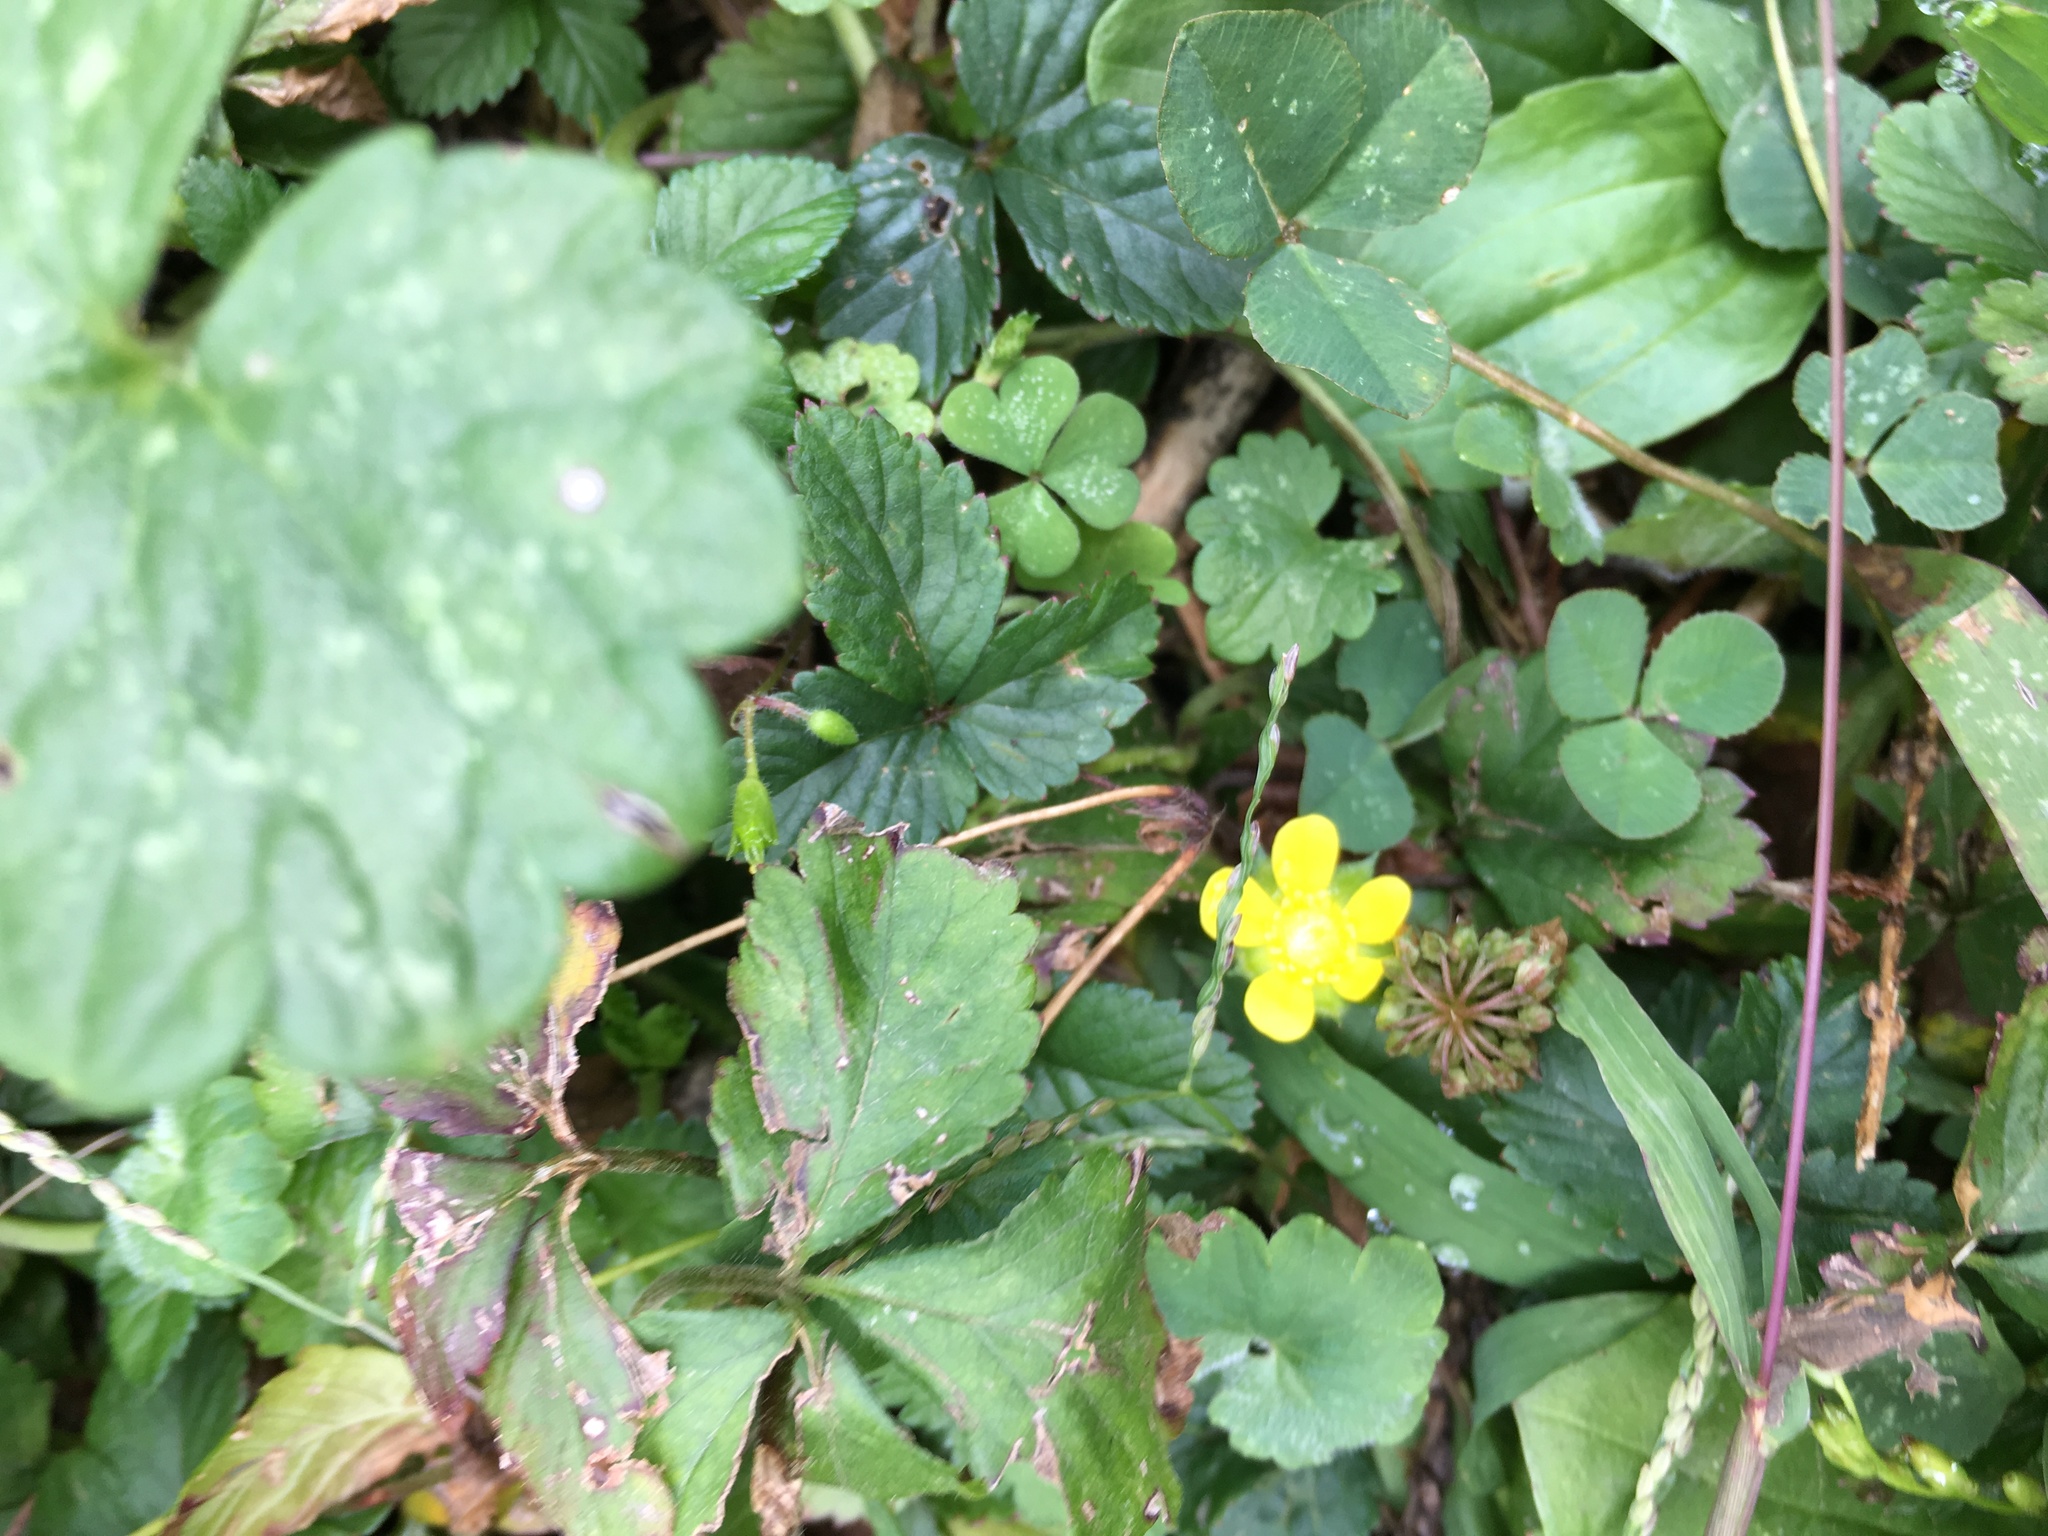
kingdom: Plantae
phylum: Tracheophyta
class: Magnoliopsida
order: Rosales
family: Rosaceae
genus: Potentilla
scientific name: Potentilla indica
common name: Yellow-flowered strawberry
